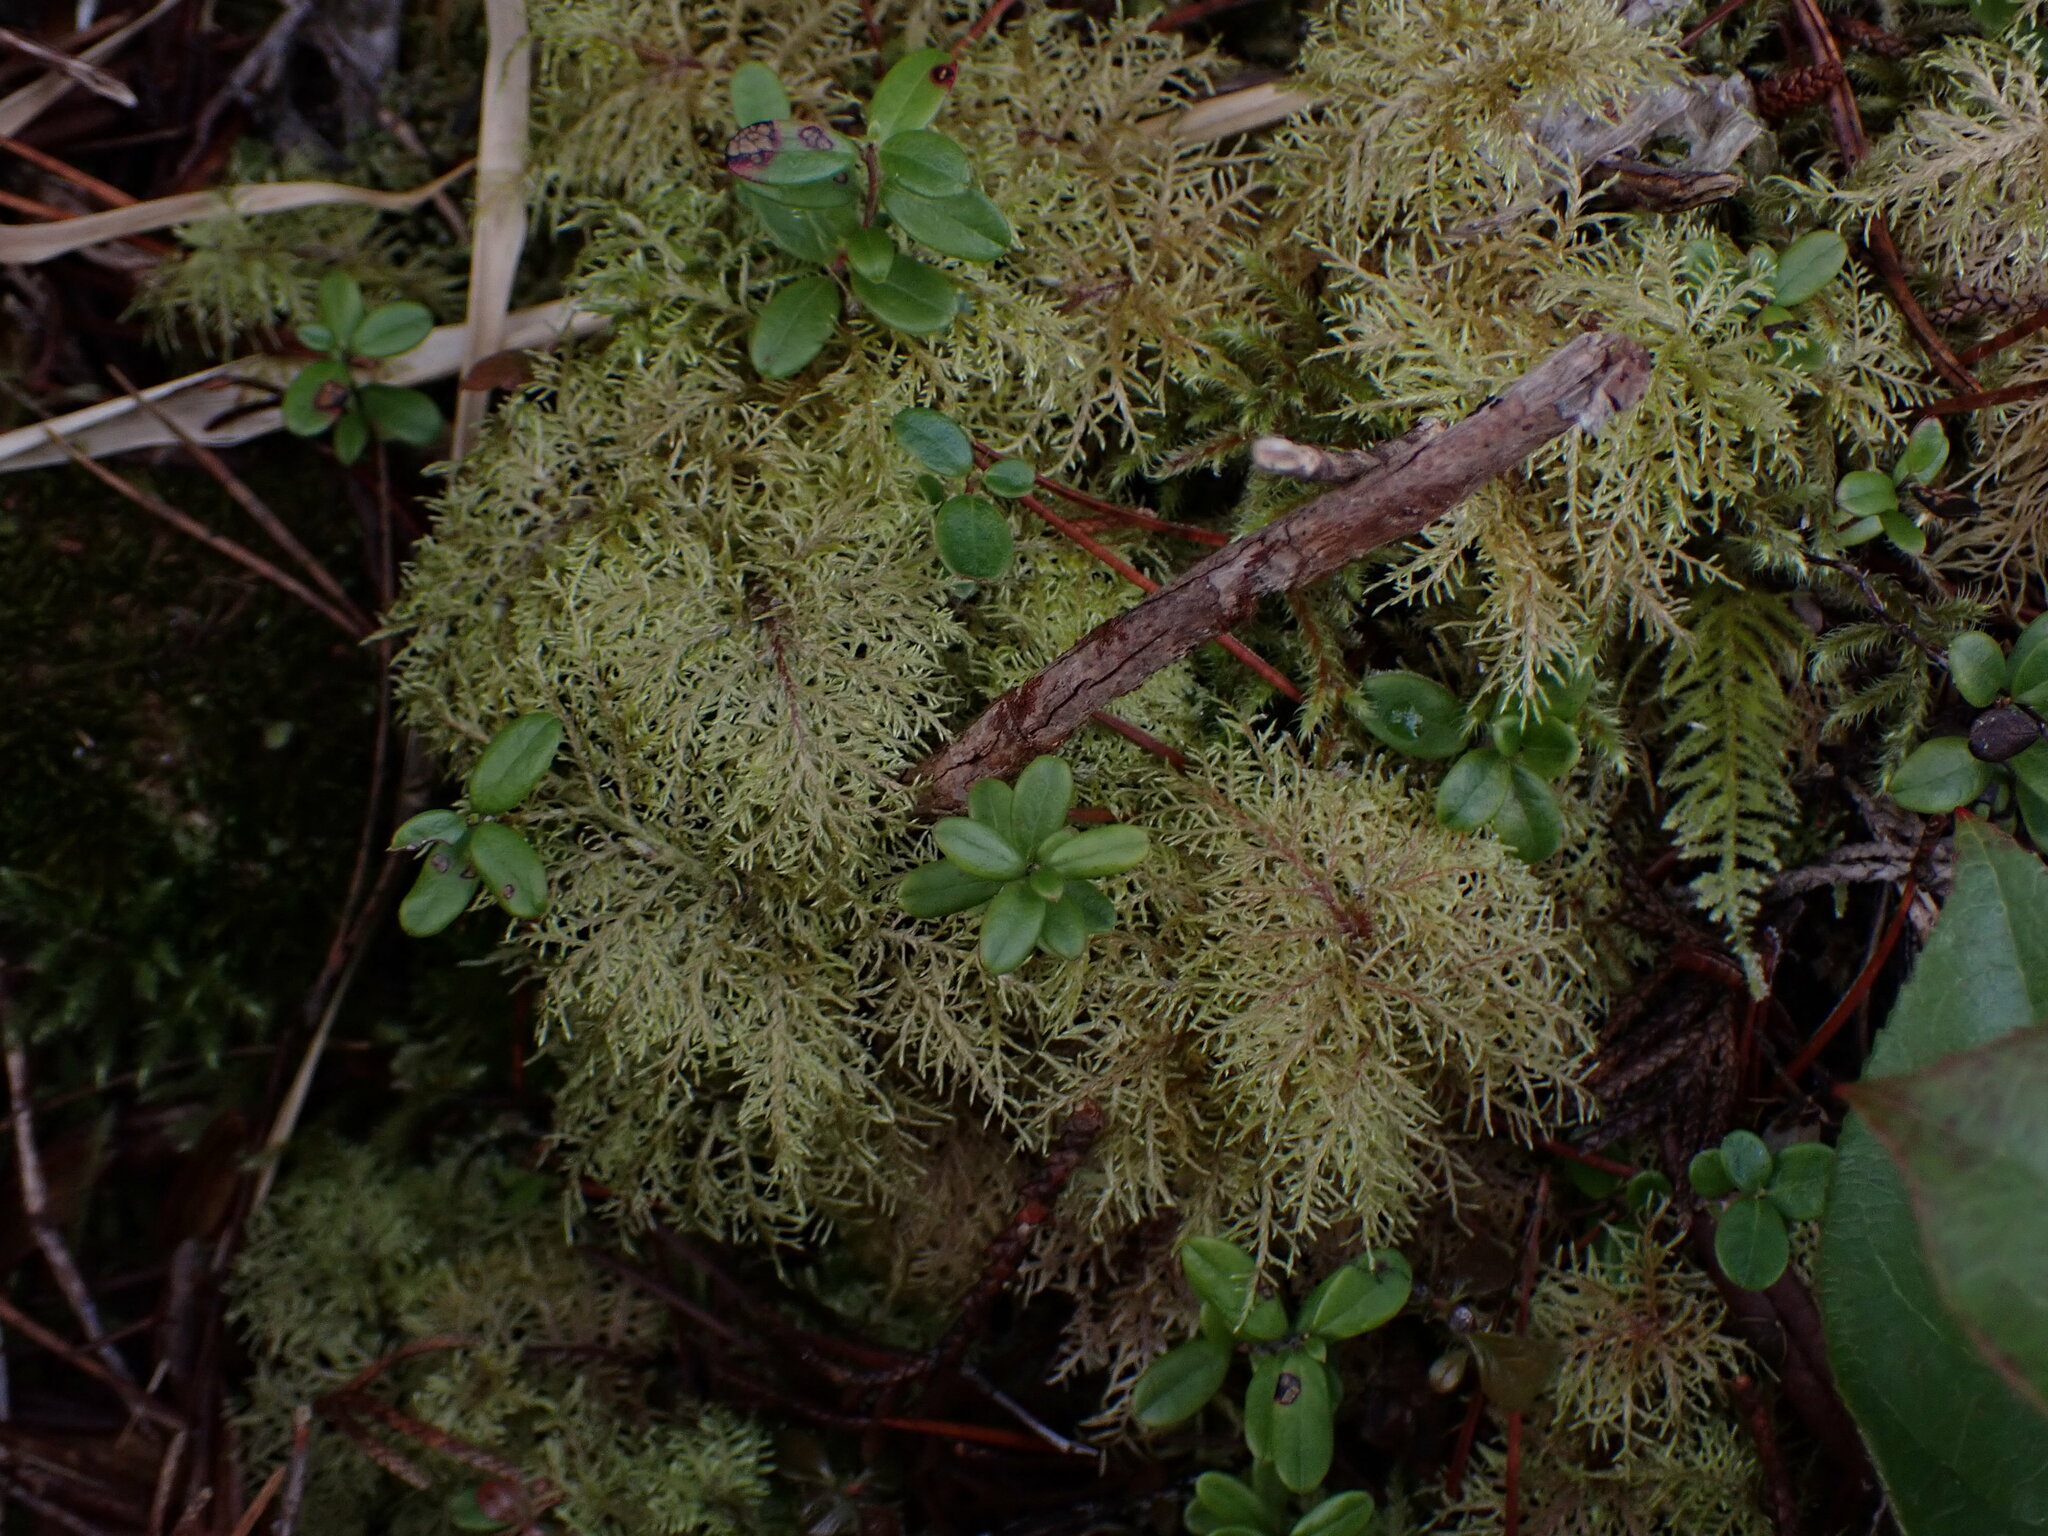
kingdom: Plantae
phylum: Bryophyta
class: Bryopsida
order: Hypnales
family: Hylocomiaceae
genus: Hylocomium
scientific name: Hylocomium splendens
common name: Stairstep moss
